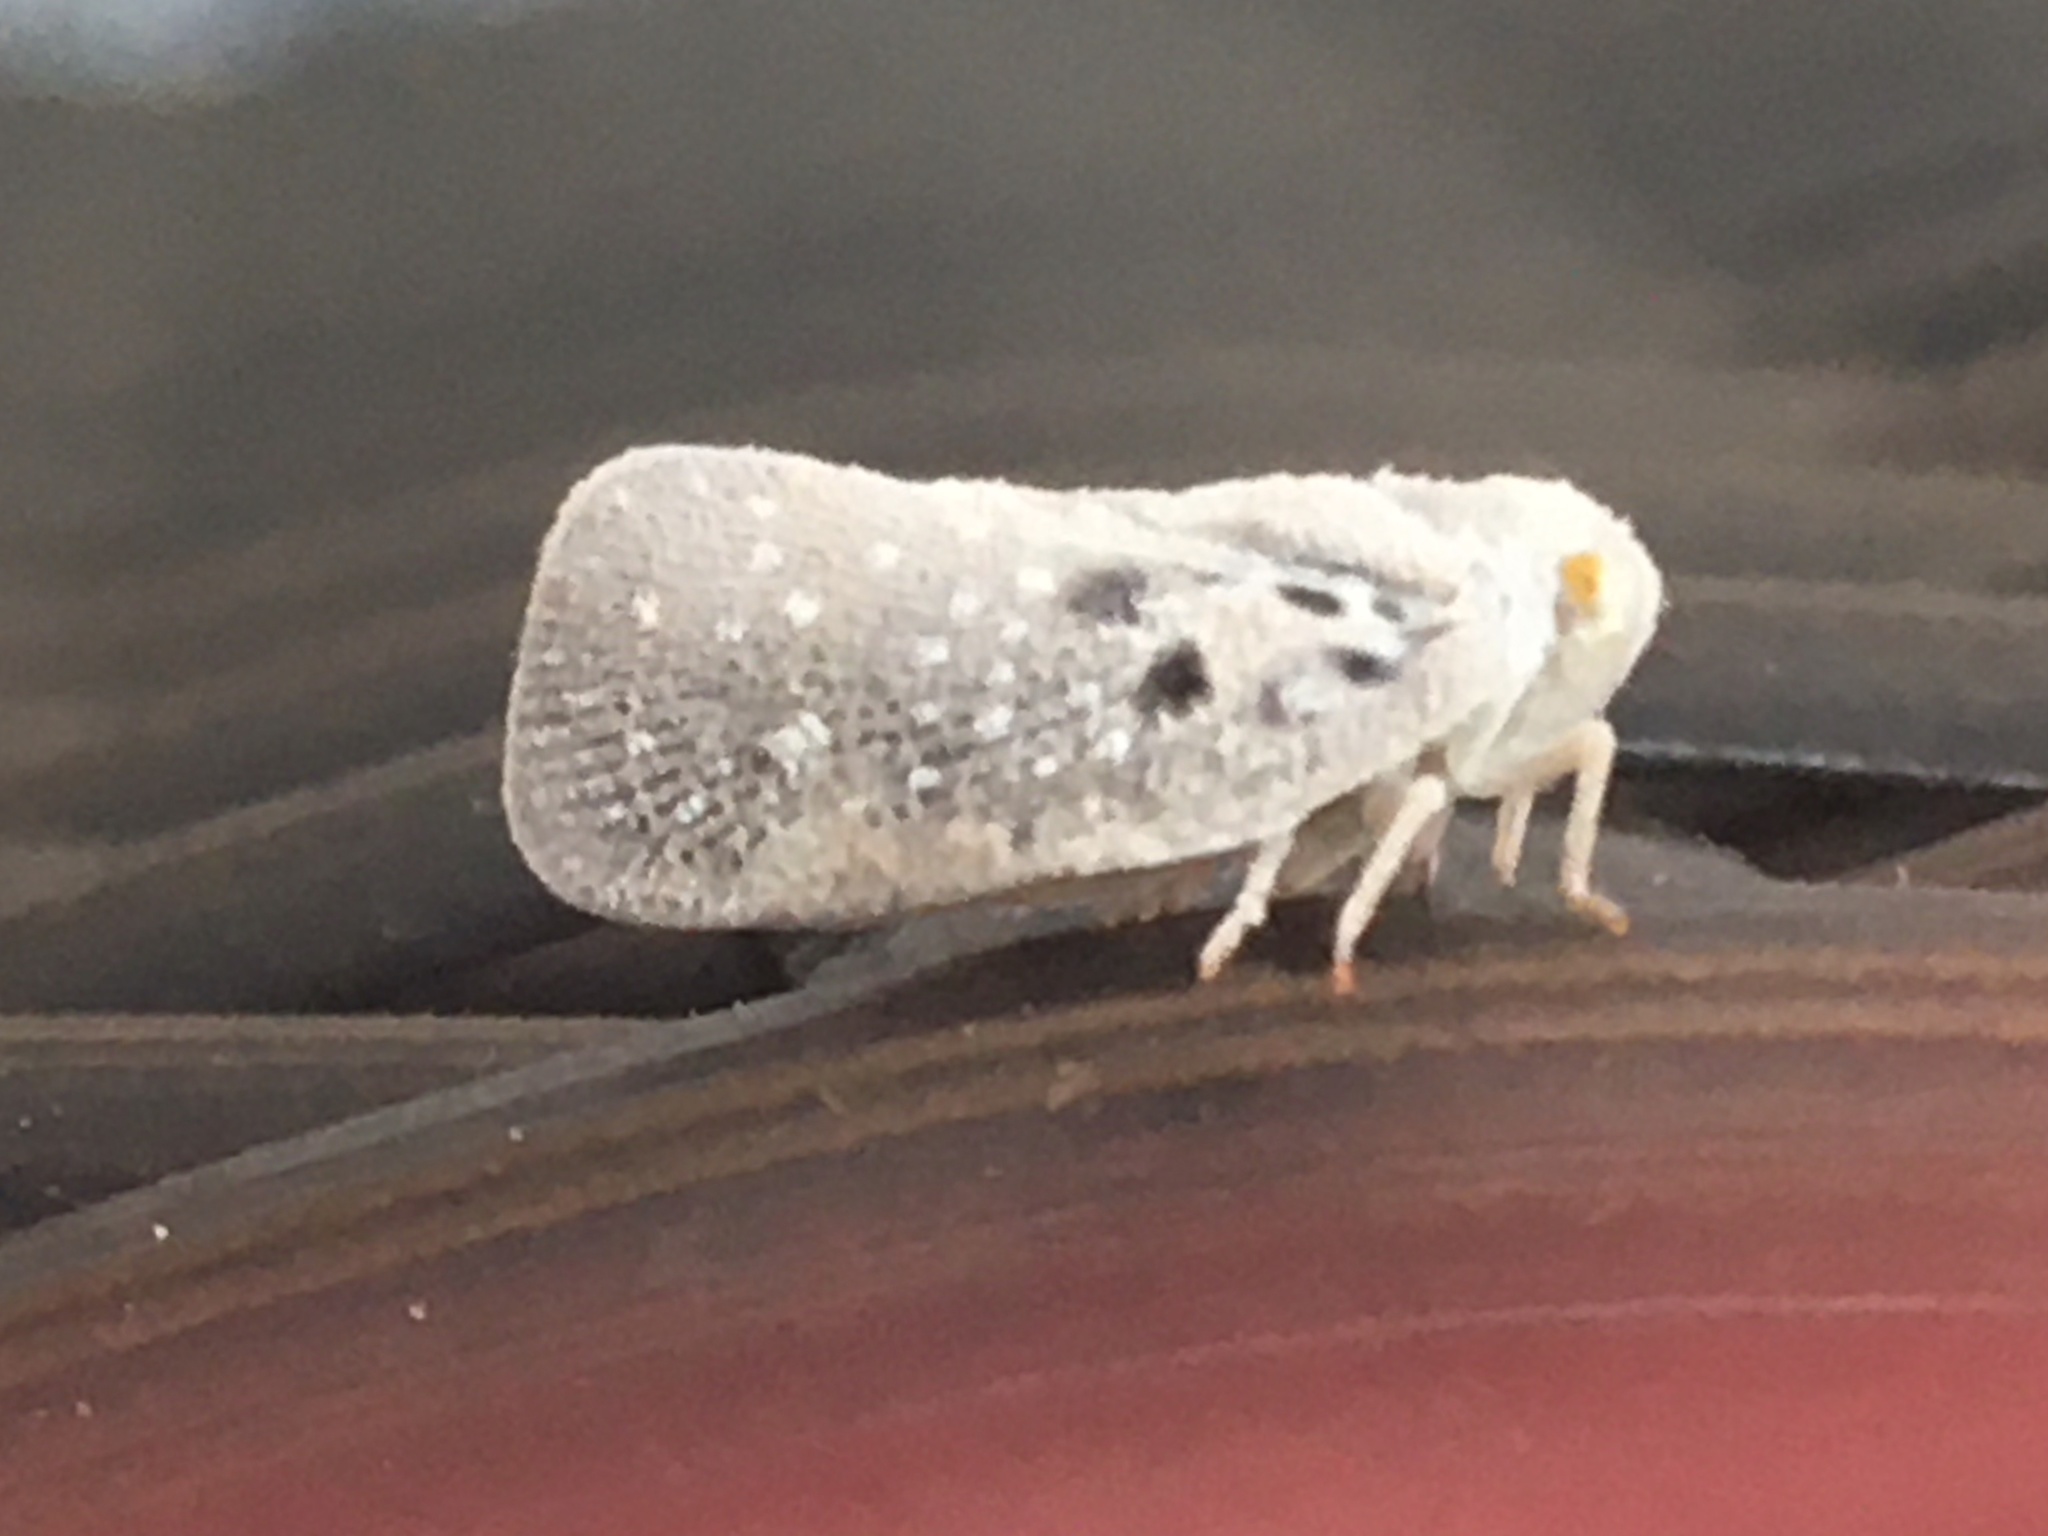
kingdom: Animalia
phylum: Arthropoda
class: Insecta
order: Hemiptera
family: Flatidae
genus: Metcalfa
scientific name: Metcalfa pruinosa
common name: Citrus flatid planthopper
